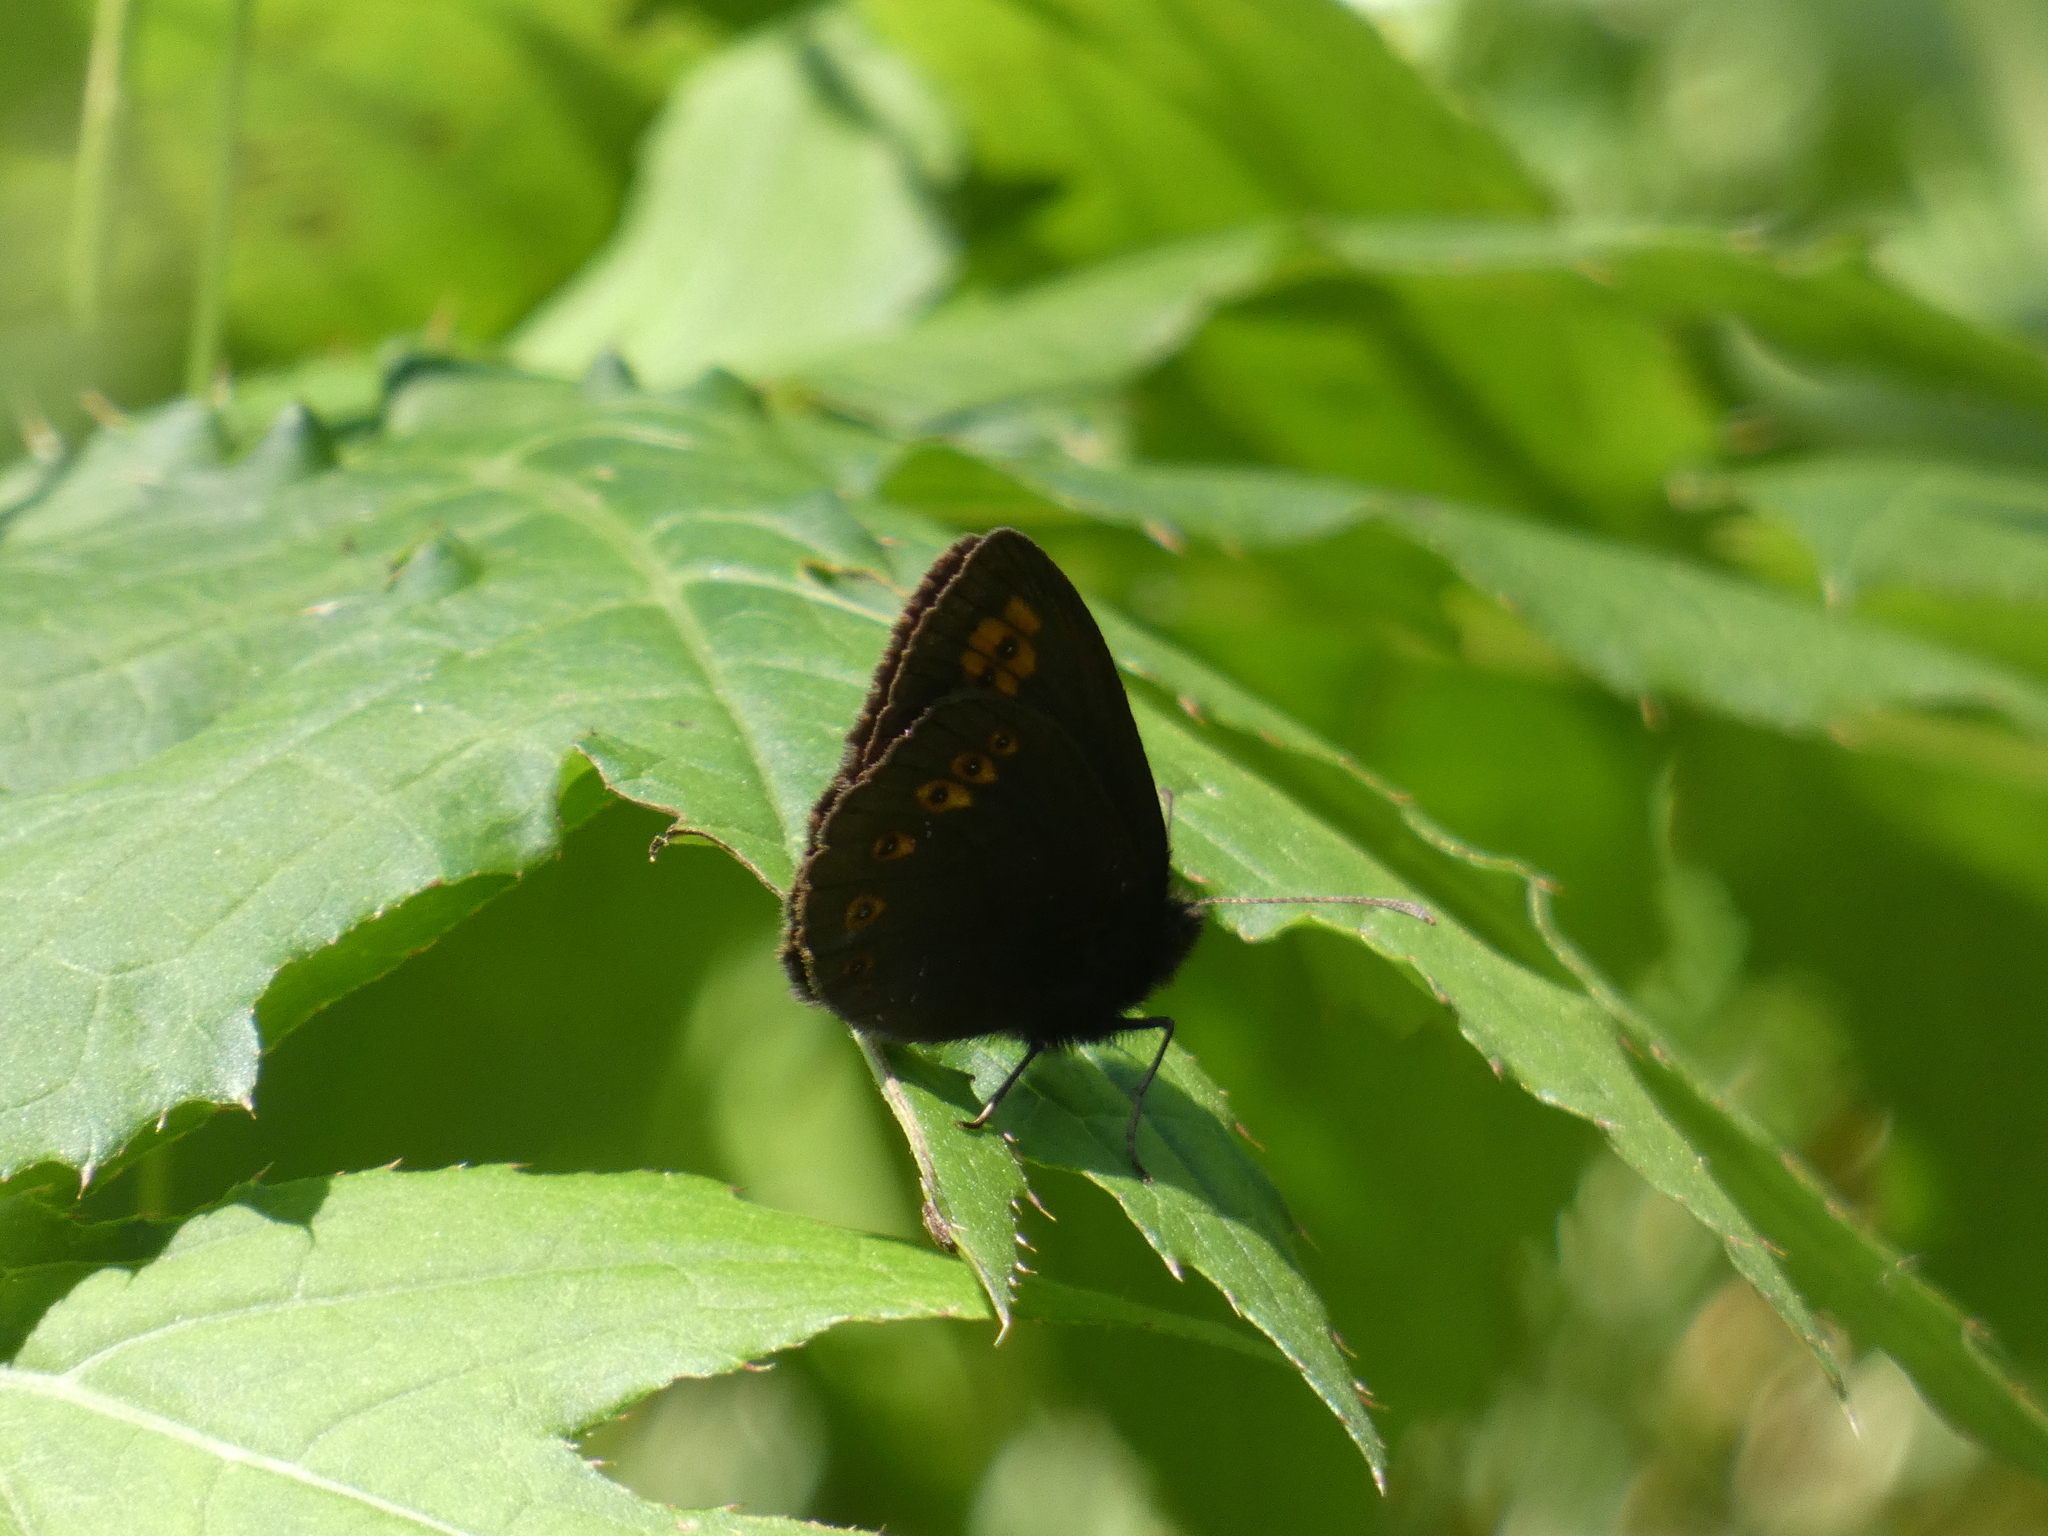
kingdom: Animalia
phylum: Arthropoda
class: Insecta
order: Lepidoptera
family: Nymphalidae
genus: Erebia
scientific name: Erebia alberganus
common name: Almond-eyed ringlet
